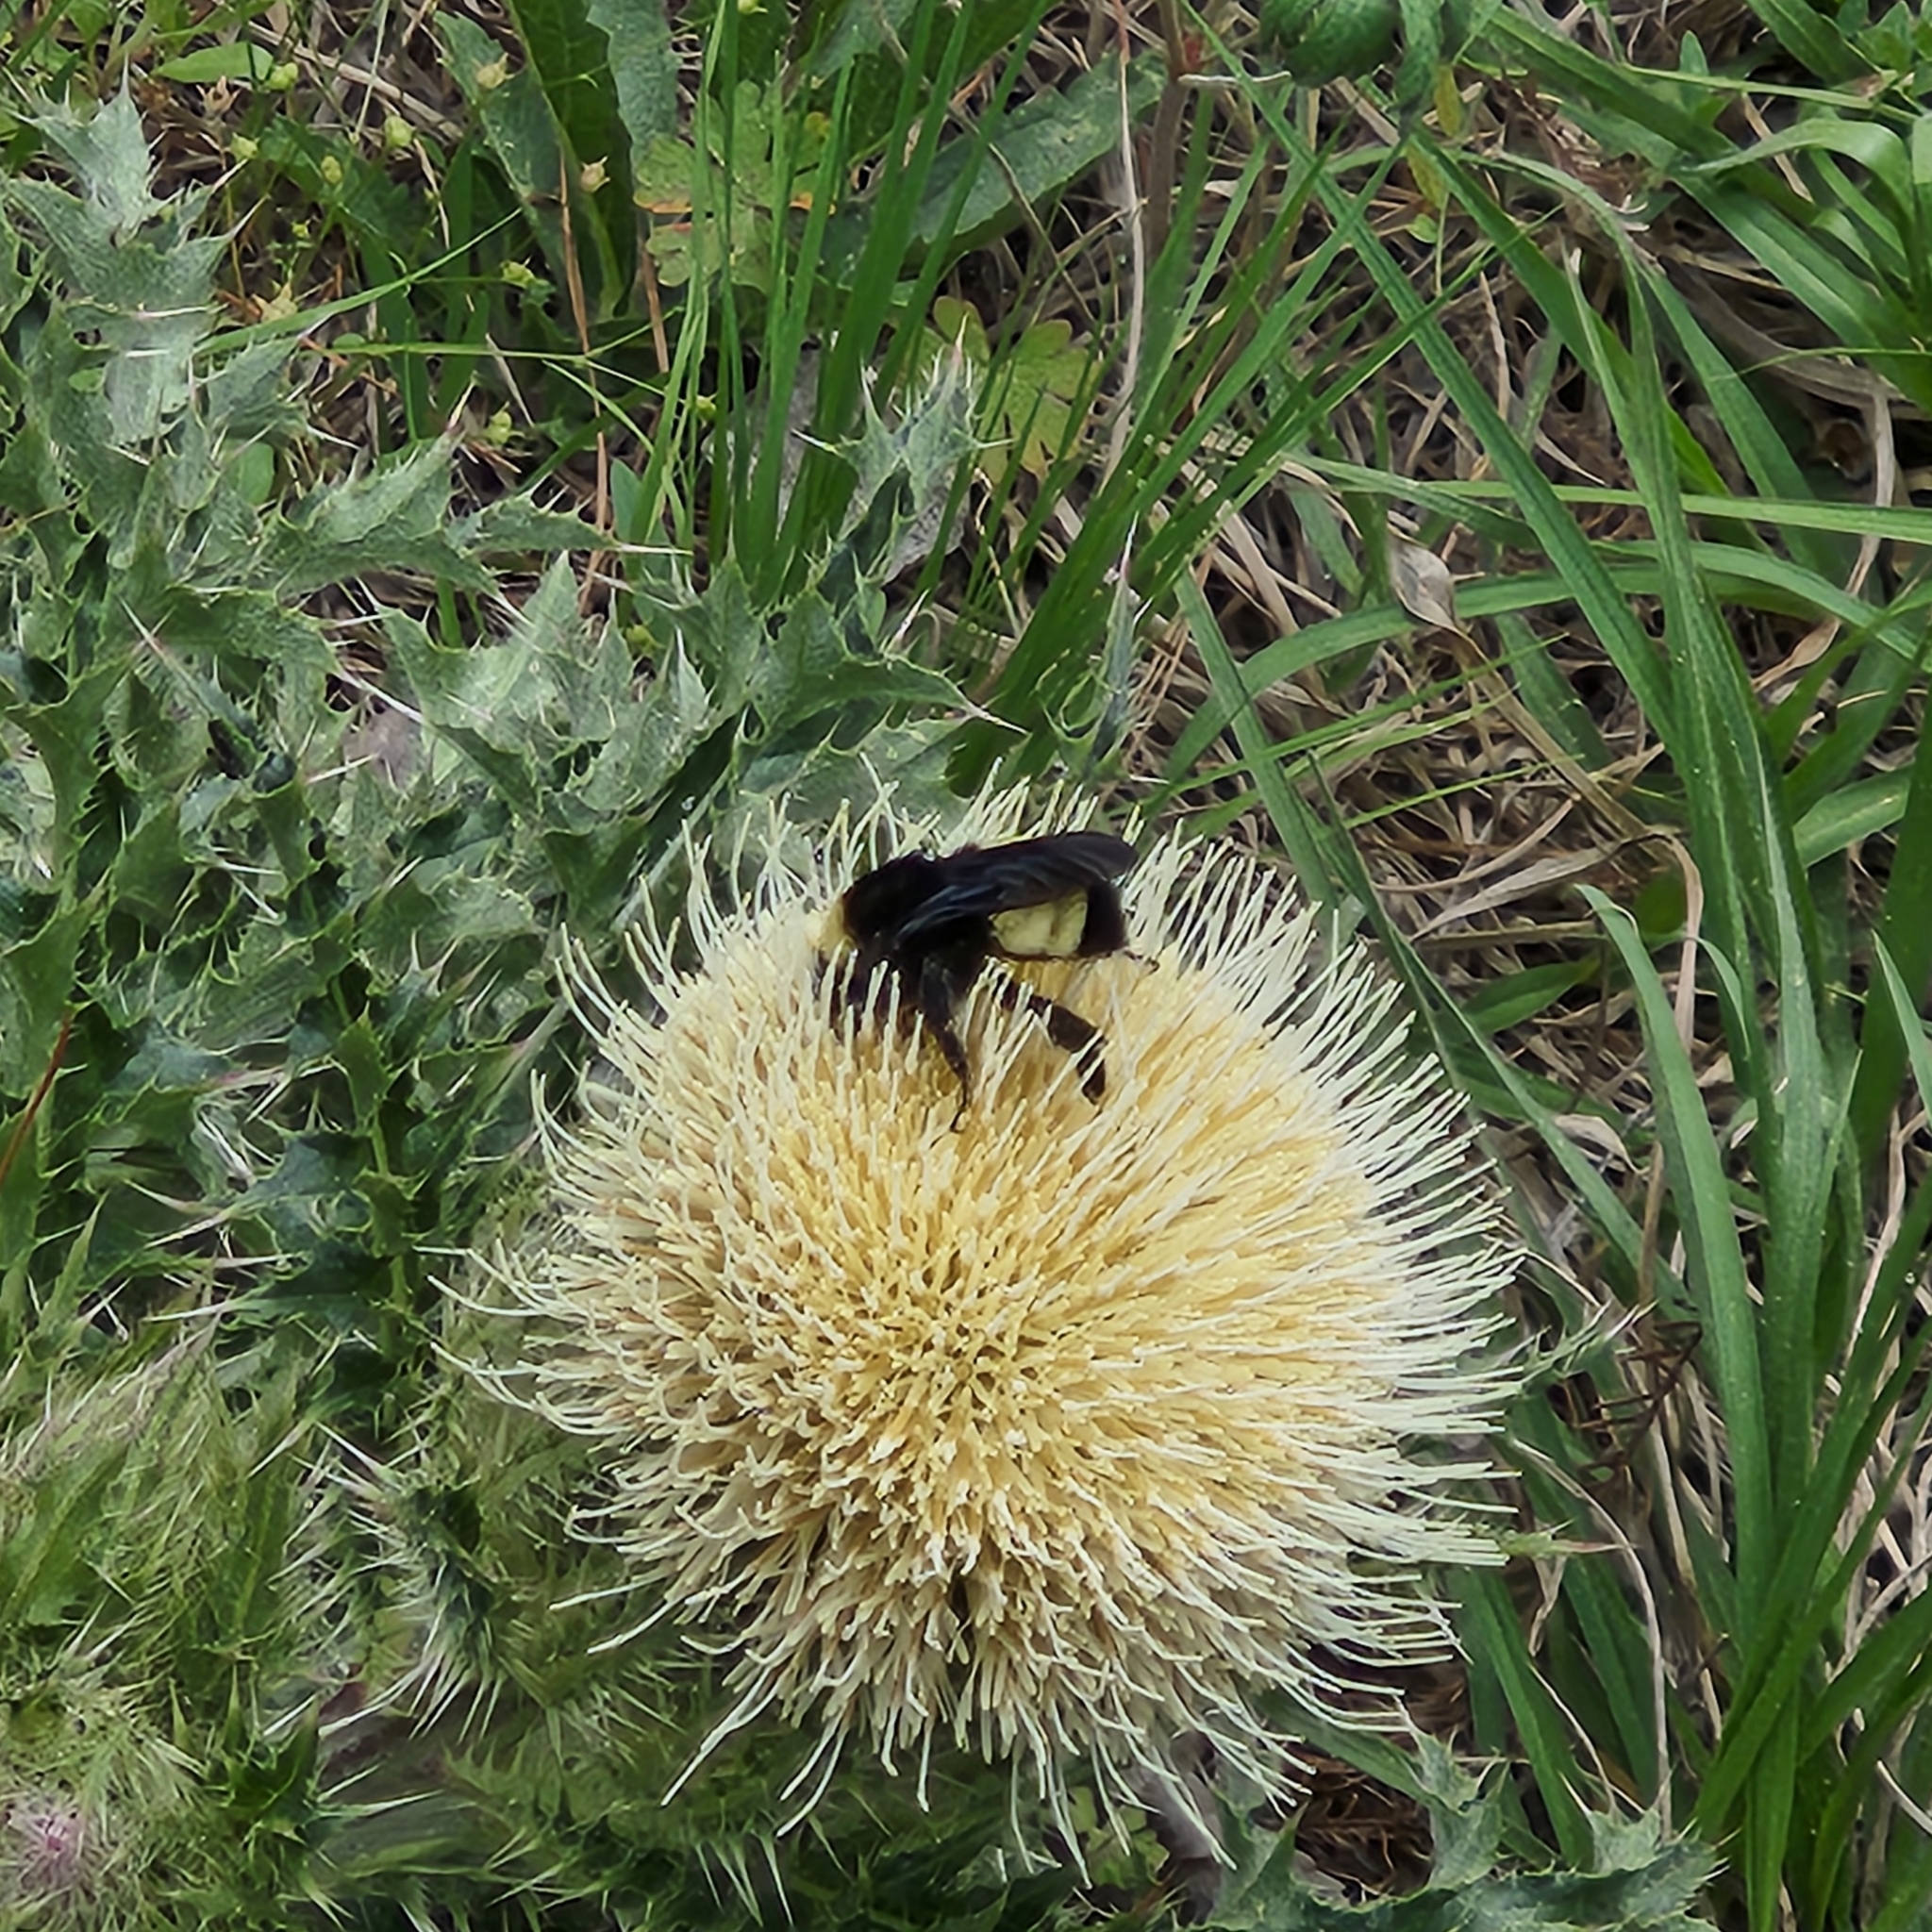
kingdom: Animalia
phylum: Arthropoda
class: Insecta
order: Hymenoptera
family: Apidae
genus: Bombus
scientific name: Bombus pensylvanicus
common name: Bumble bee
